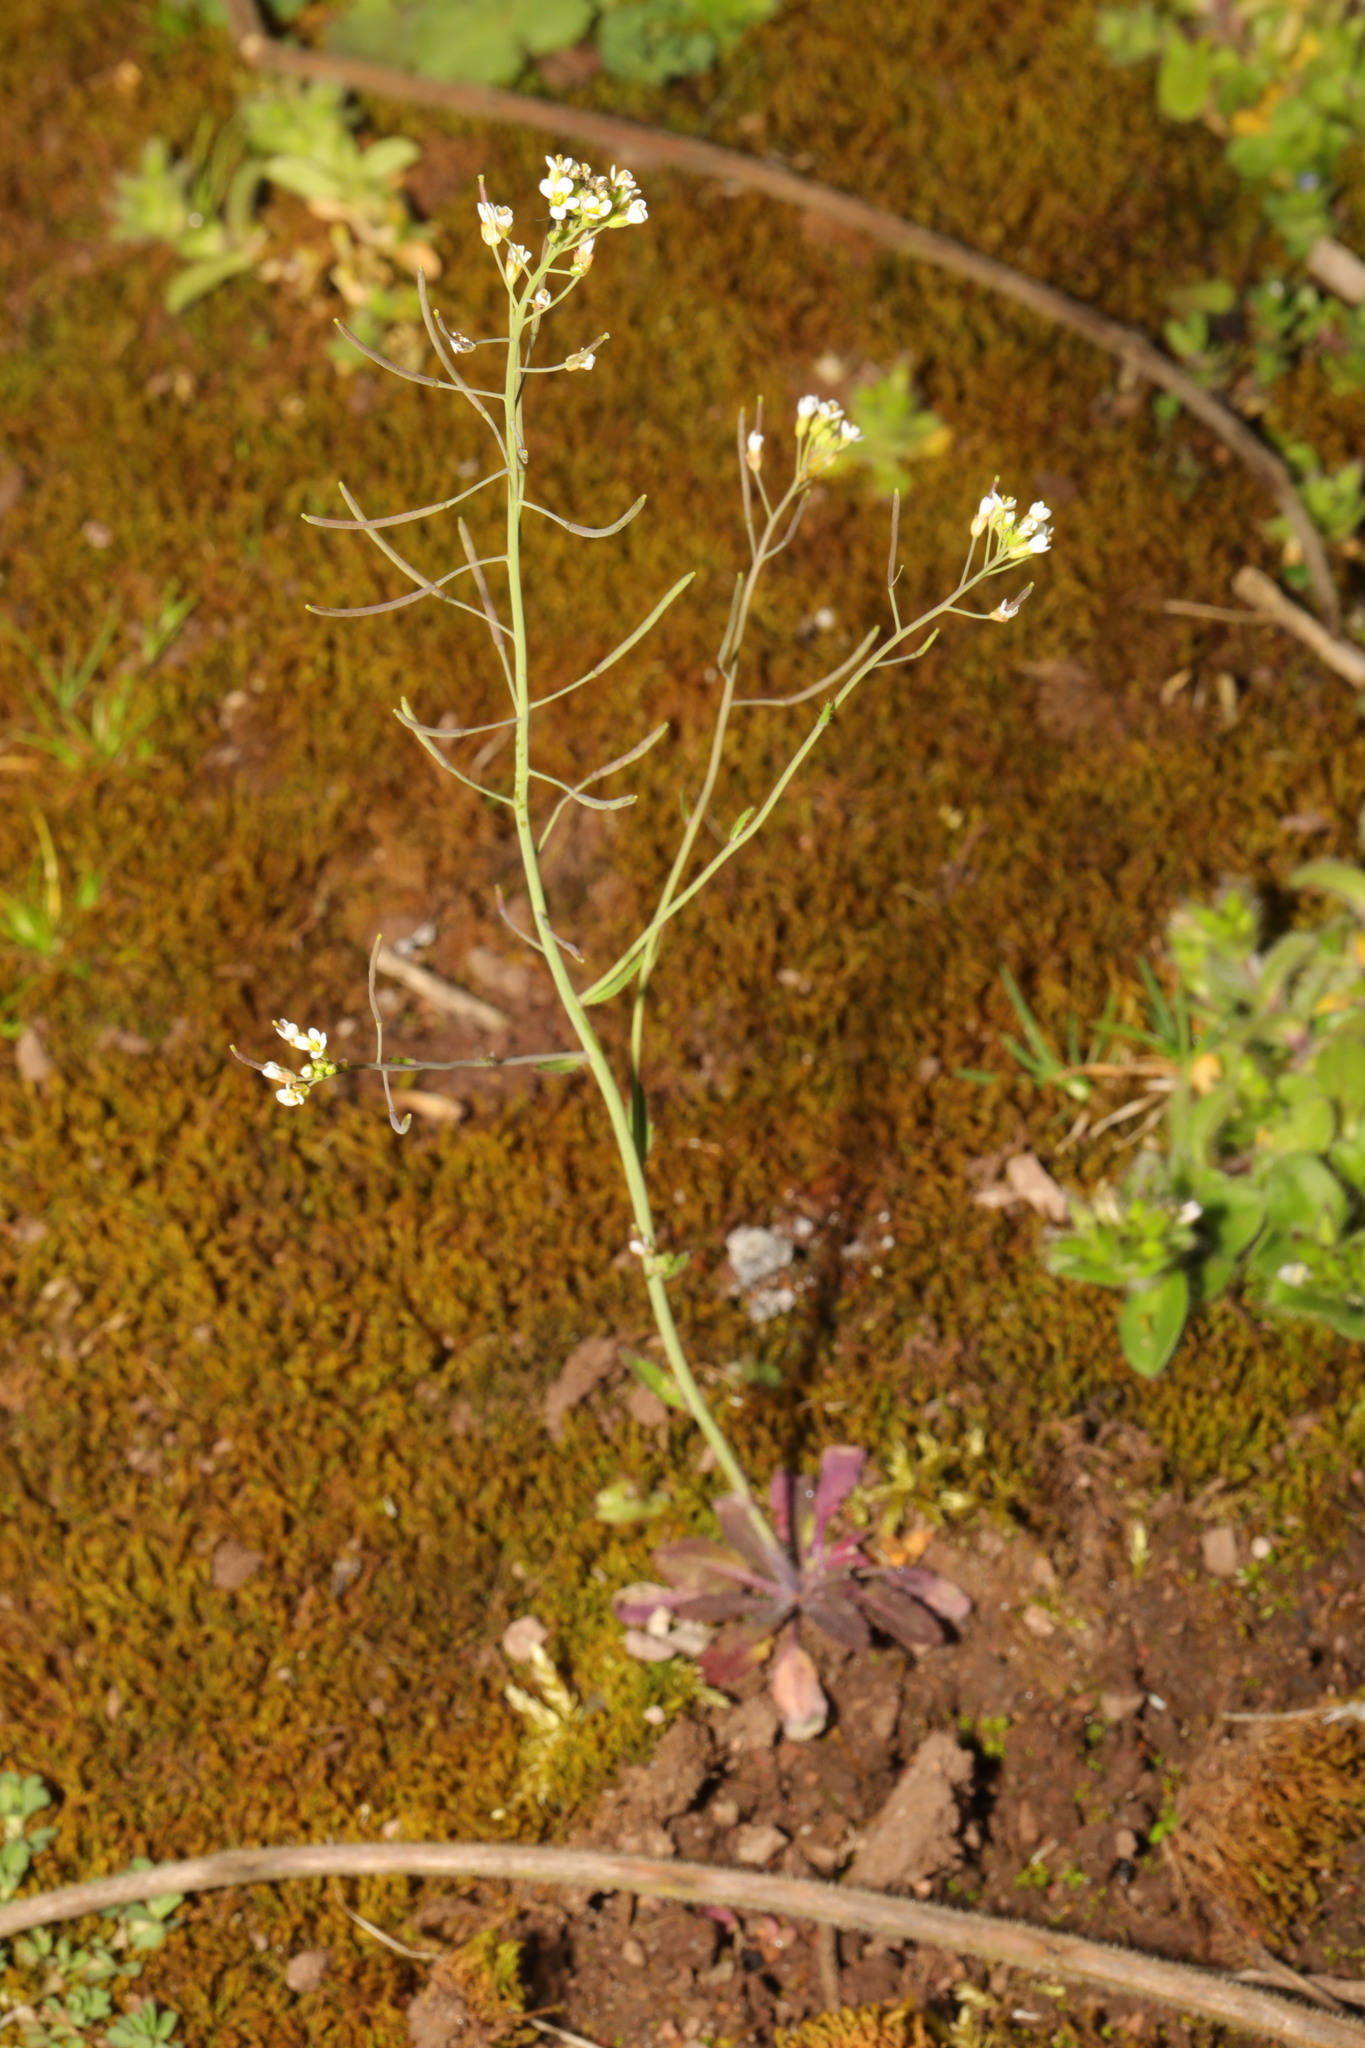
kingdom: Plantae
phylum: Tracheophyta
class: Magnoliopsida
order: Brassicales
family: Brassicaceae
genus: Arabidopsis
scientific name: Arabidopsis thaliana
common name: Thale cress
